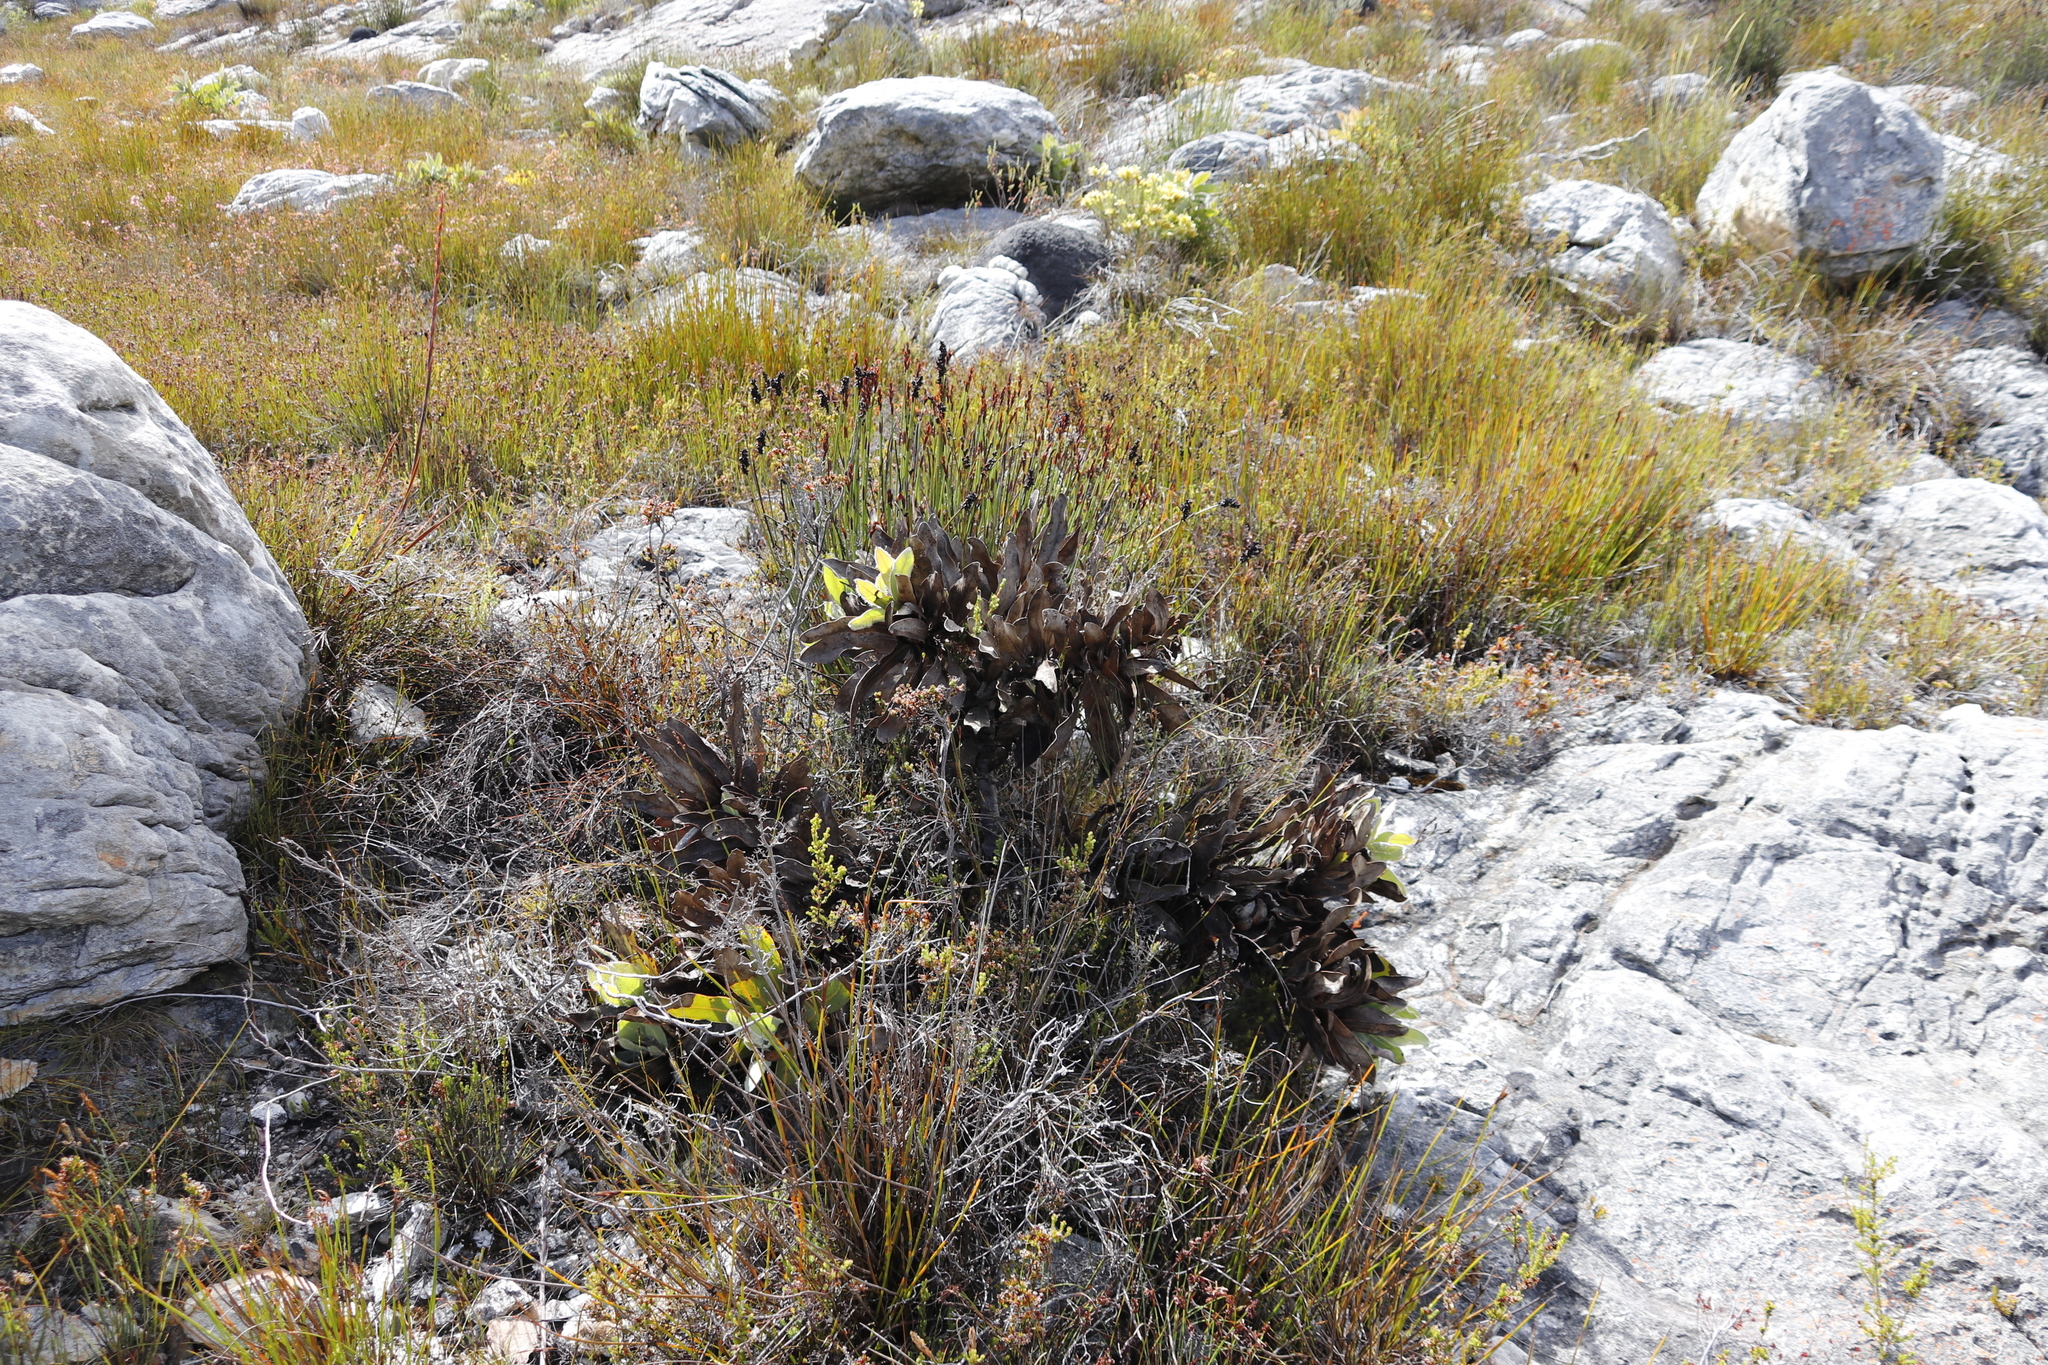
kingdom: Plantae
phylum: Tracheophyta
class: Magnoliopsida
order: Proteales
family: Proteaceae
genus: Protea
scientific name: Protea magnifica
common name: Bearded sugarbush
